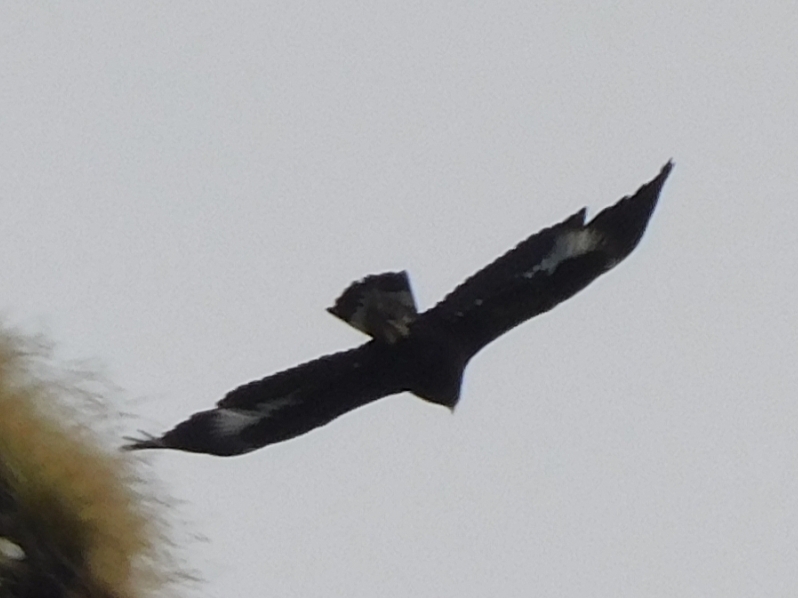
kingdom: Animalia
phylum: Chordata
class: Aves
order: Accipitriformes
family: Accipitridae
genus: Aquila
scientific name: Aquila chrysaetos
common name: Golden eagle
